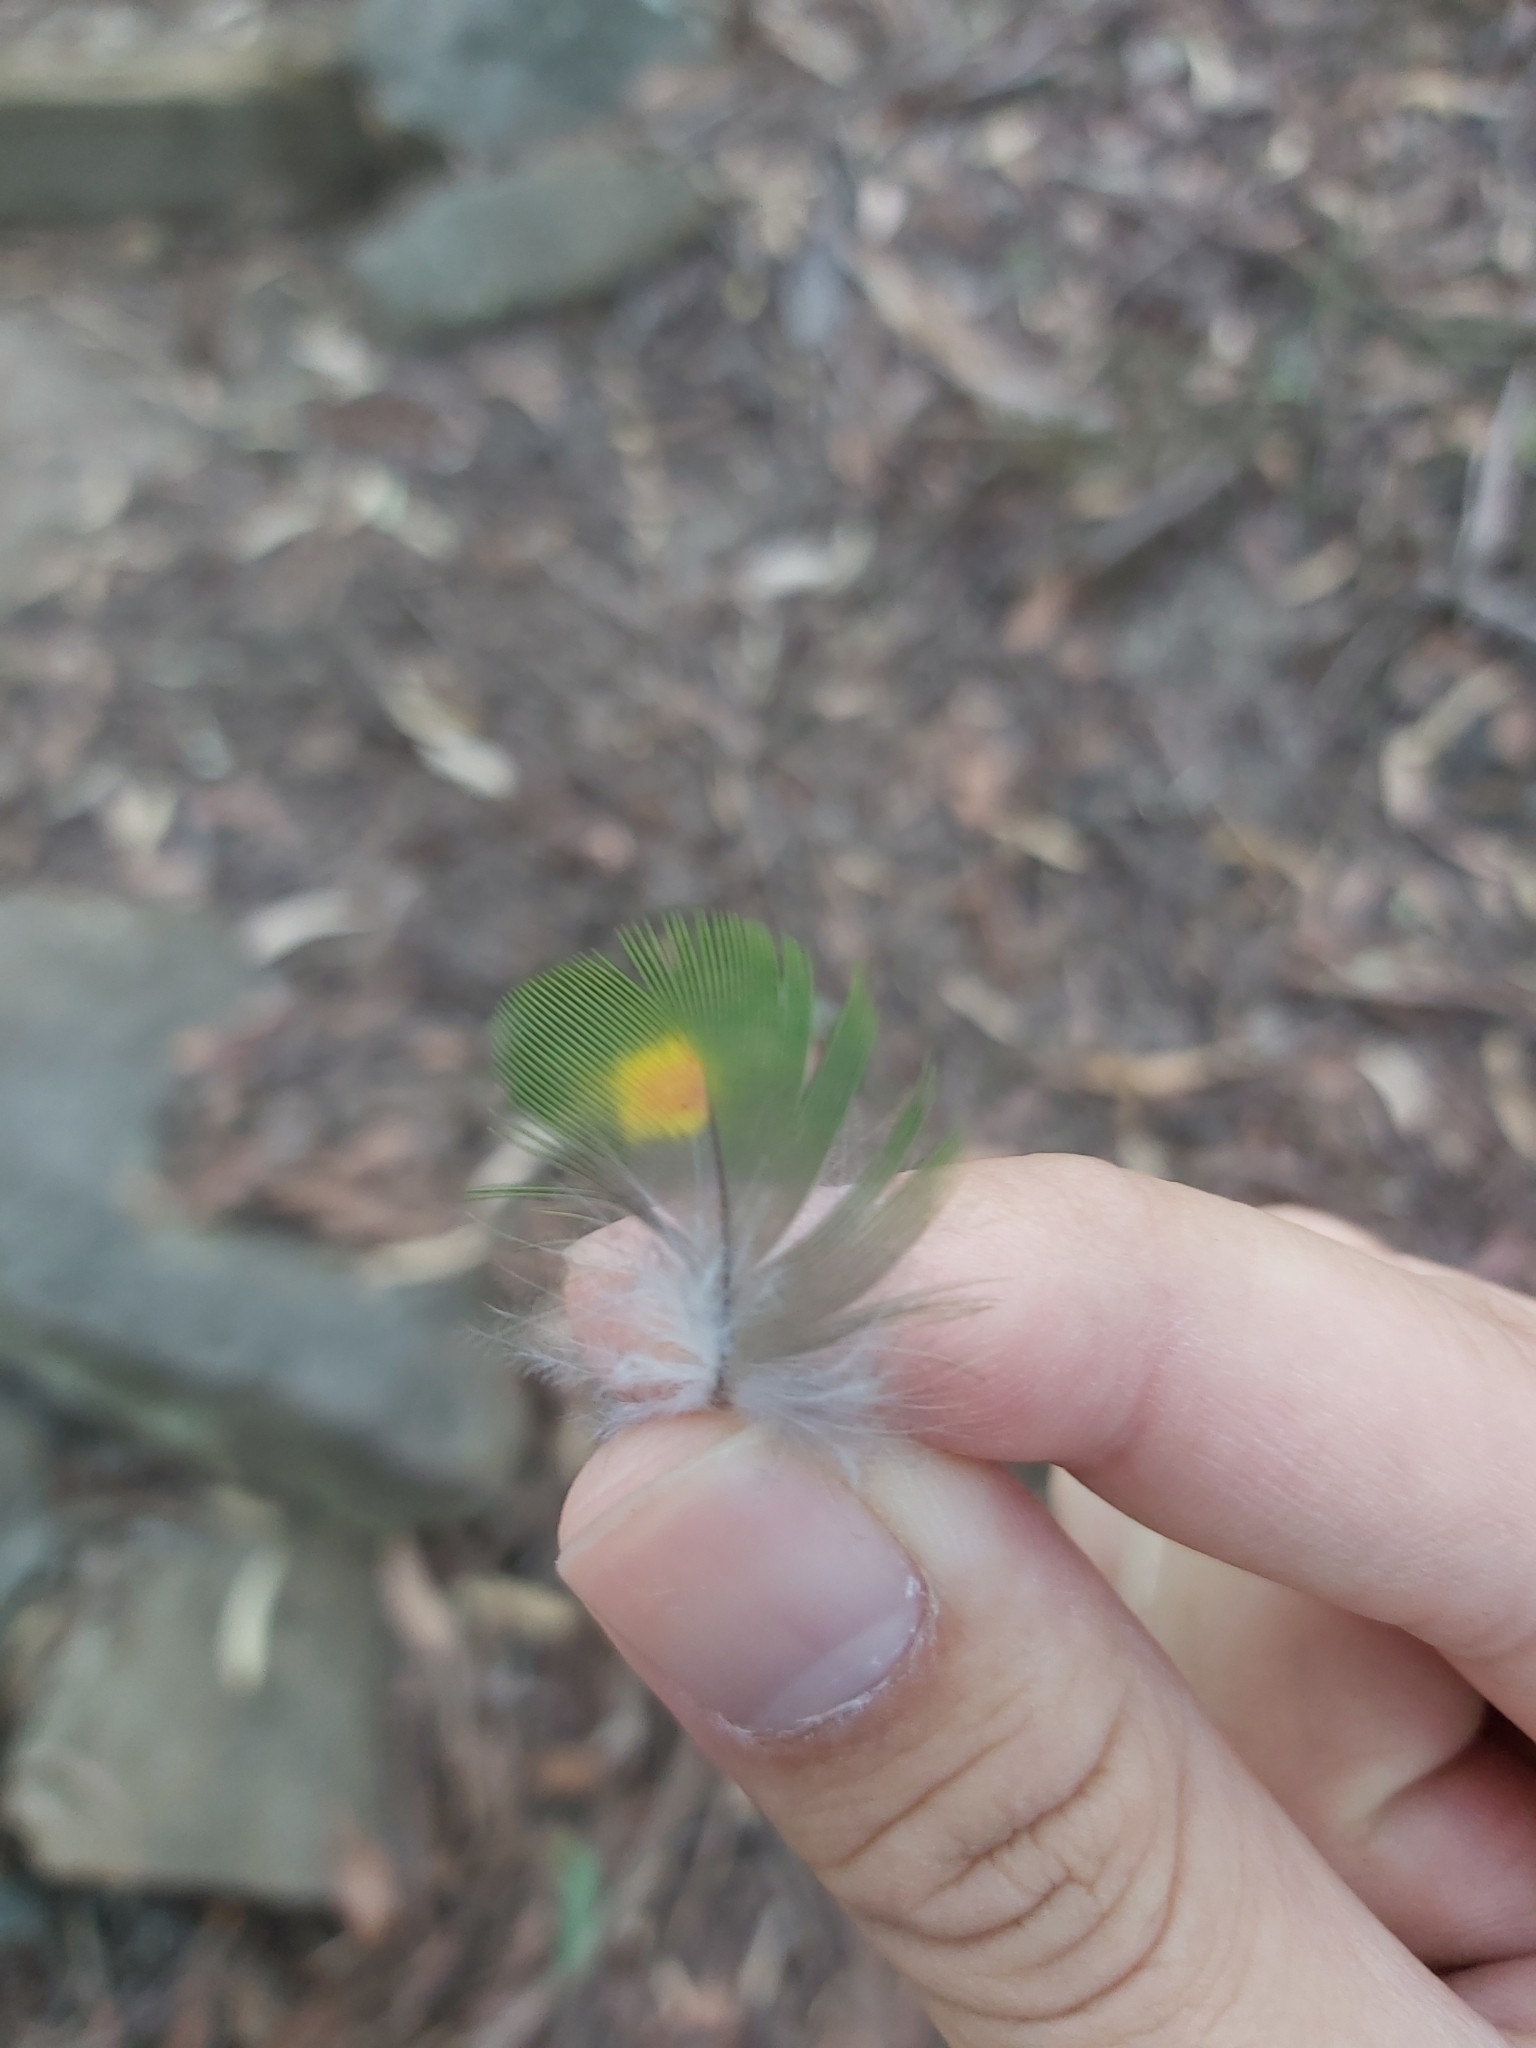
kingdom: Animalia
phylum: Chordata
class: Aves
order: Psittaciformes
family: Psittacidae
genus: Trichoglossus
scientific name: Trichoglossus haematodus
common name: Coconut lorikeet
